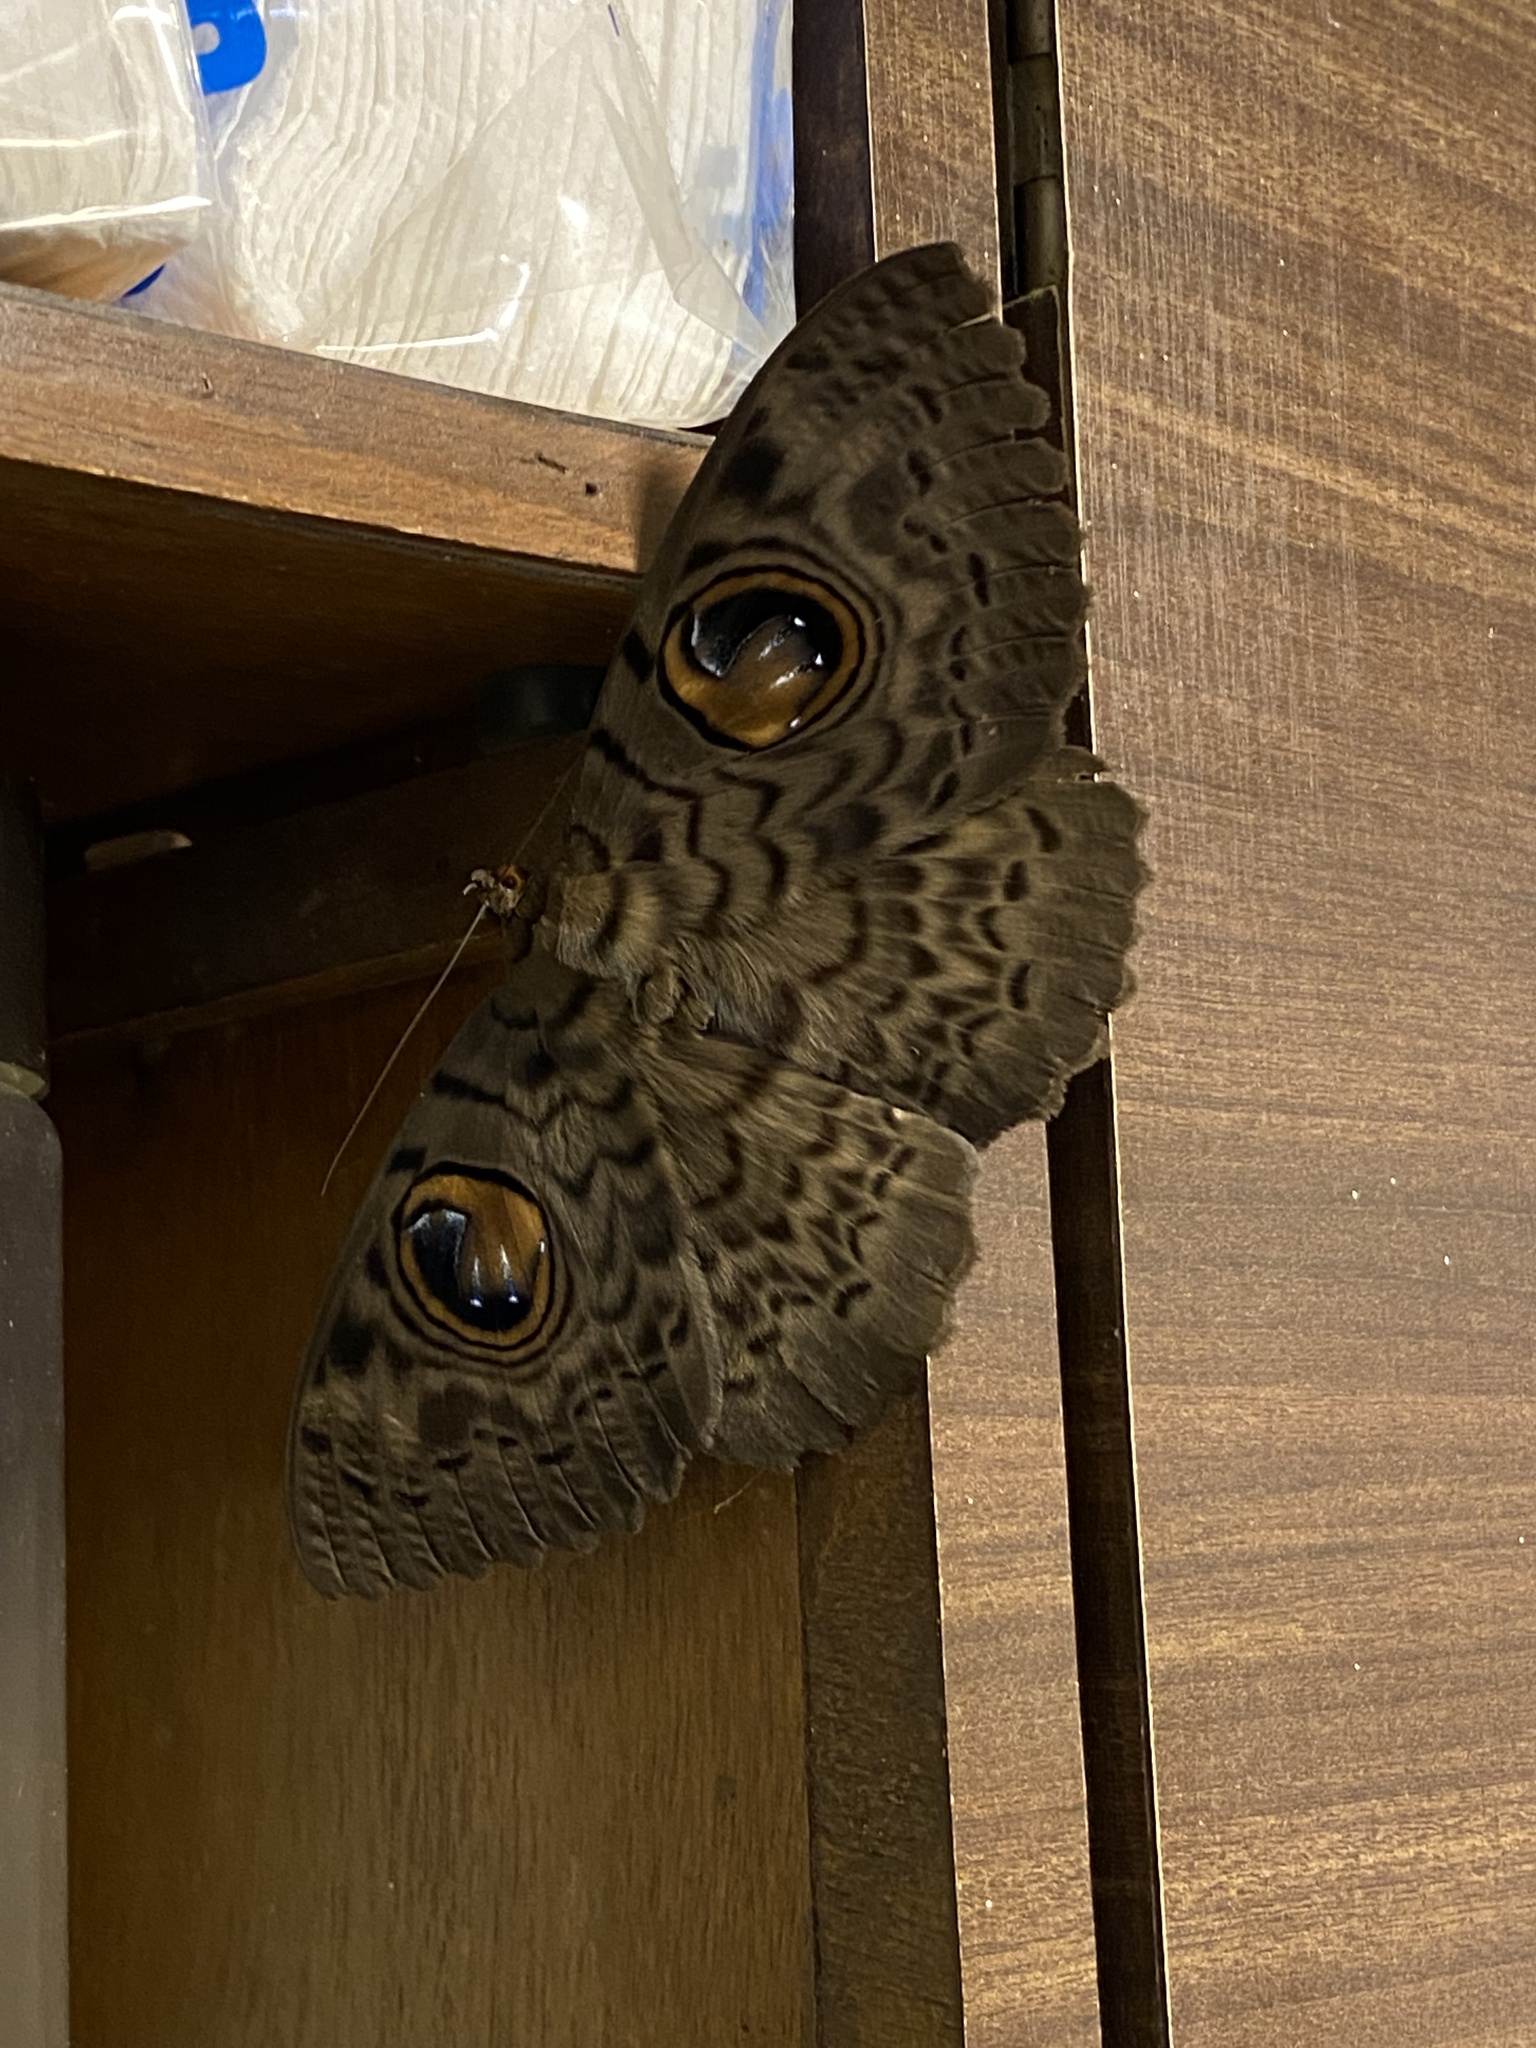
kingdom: Animalia
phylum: Arthropoda
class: Insecta
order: Lepidoptera
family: Erebidae
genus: Erebus
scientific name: Erebus macrops
